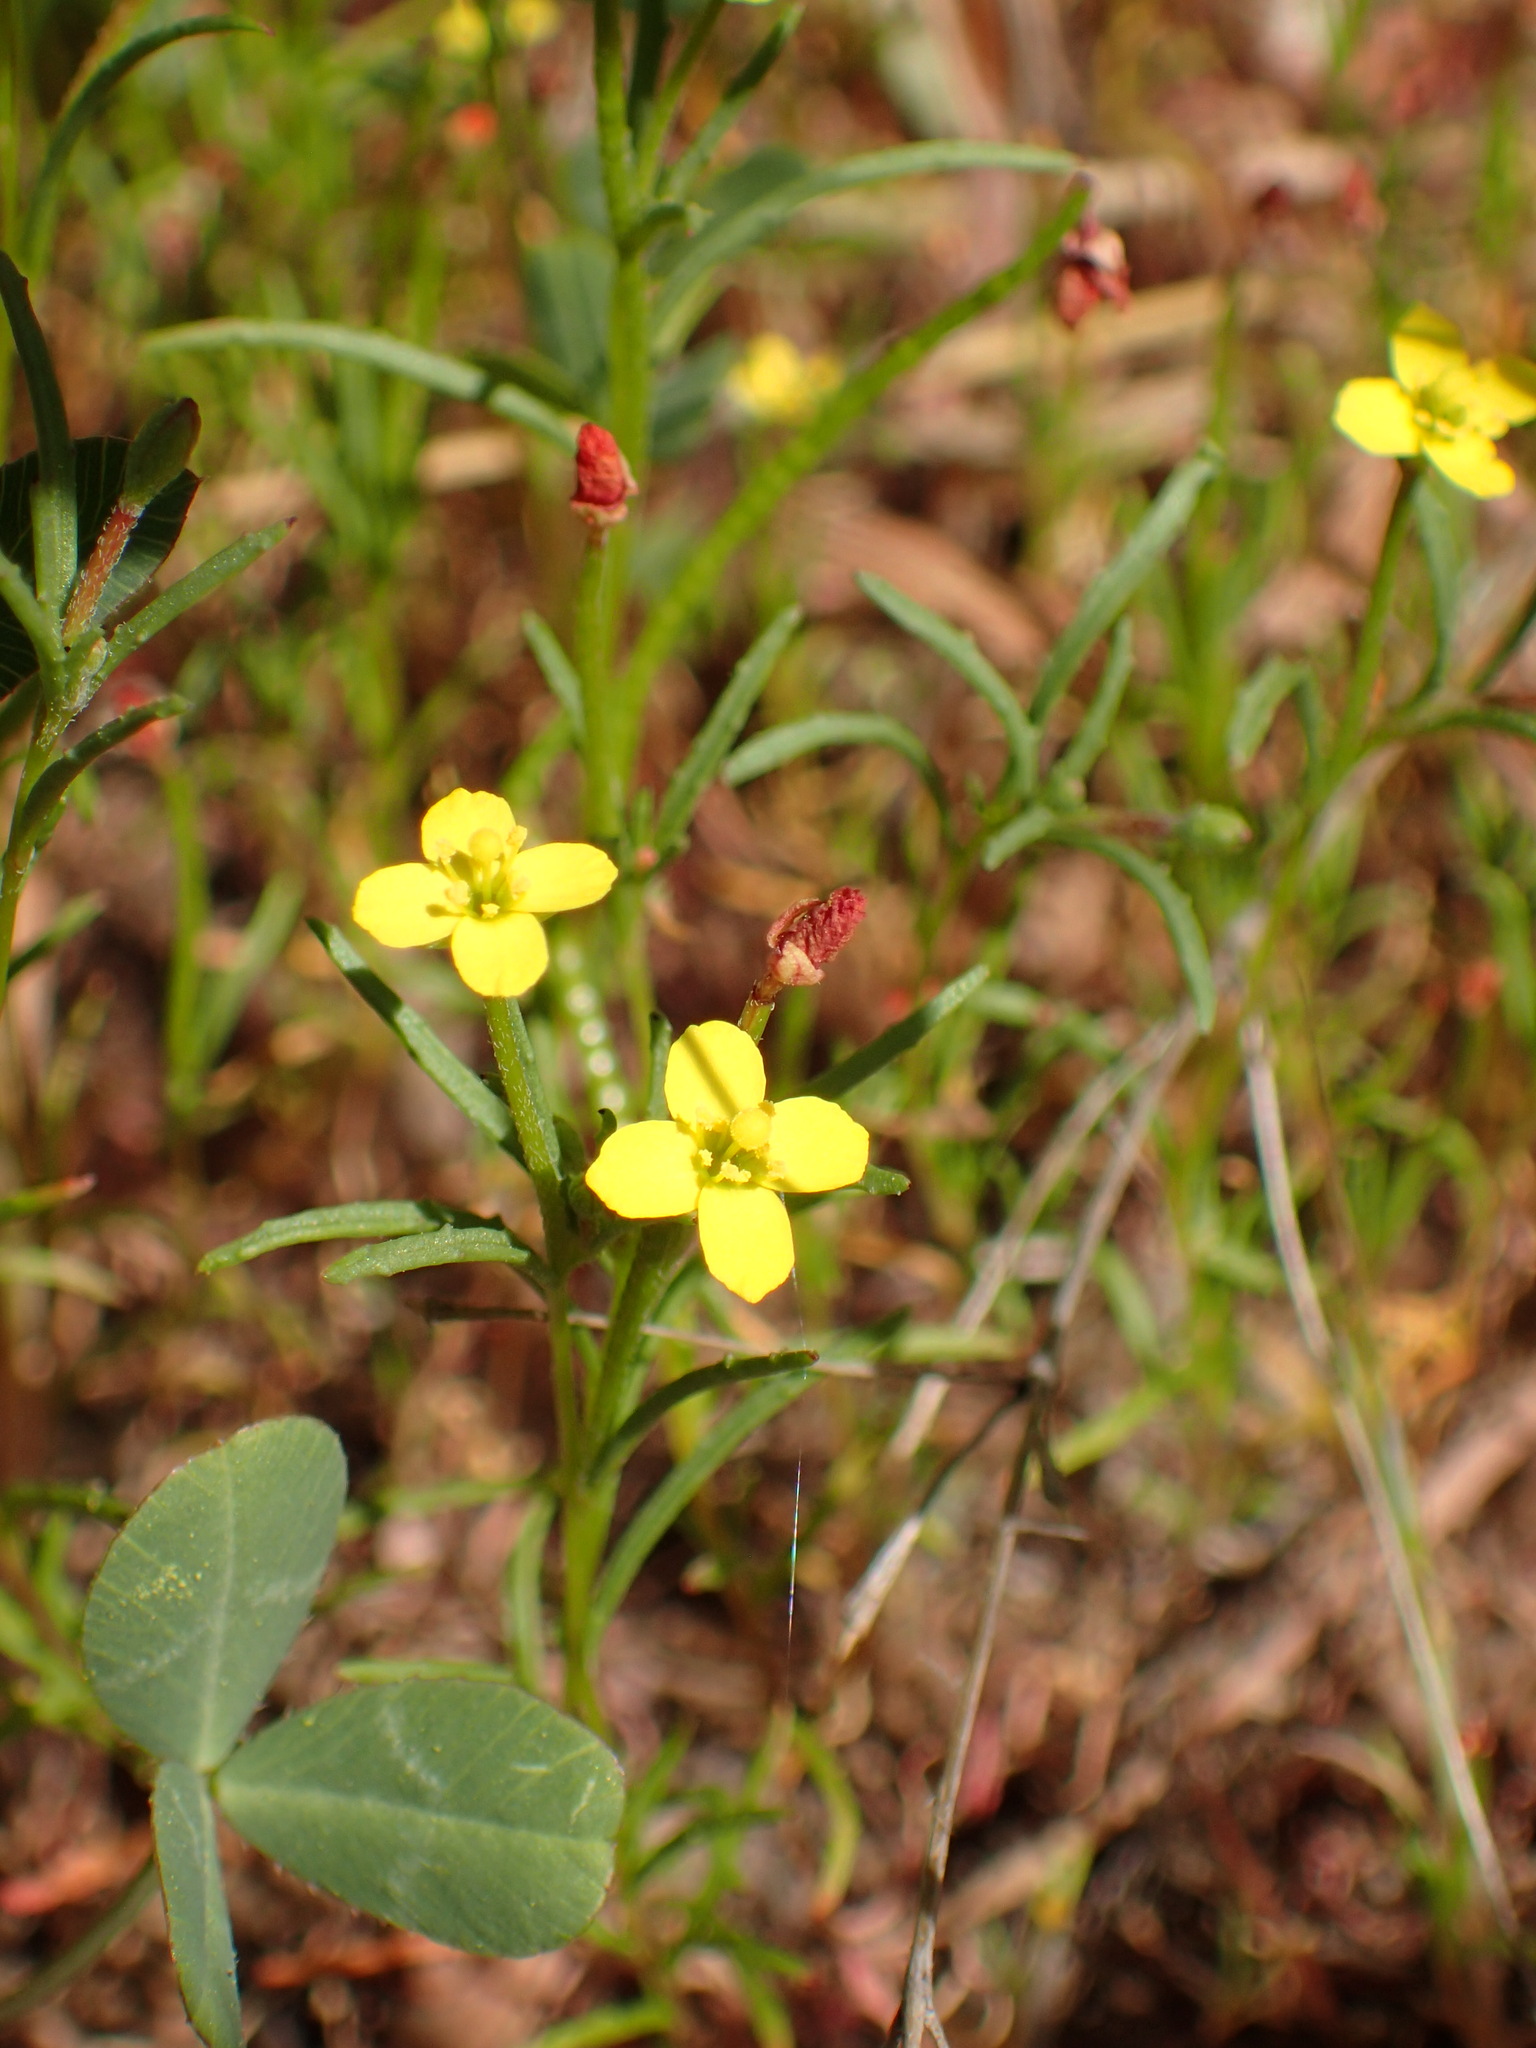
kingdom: Plantae
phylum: Tracheophyta
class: Magnoliopsida
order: Myrtales
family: Onagraceae
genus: Camissonia
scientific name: Camissonia strigulosa
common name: Contorted-primrose
